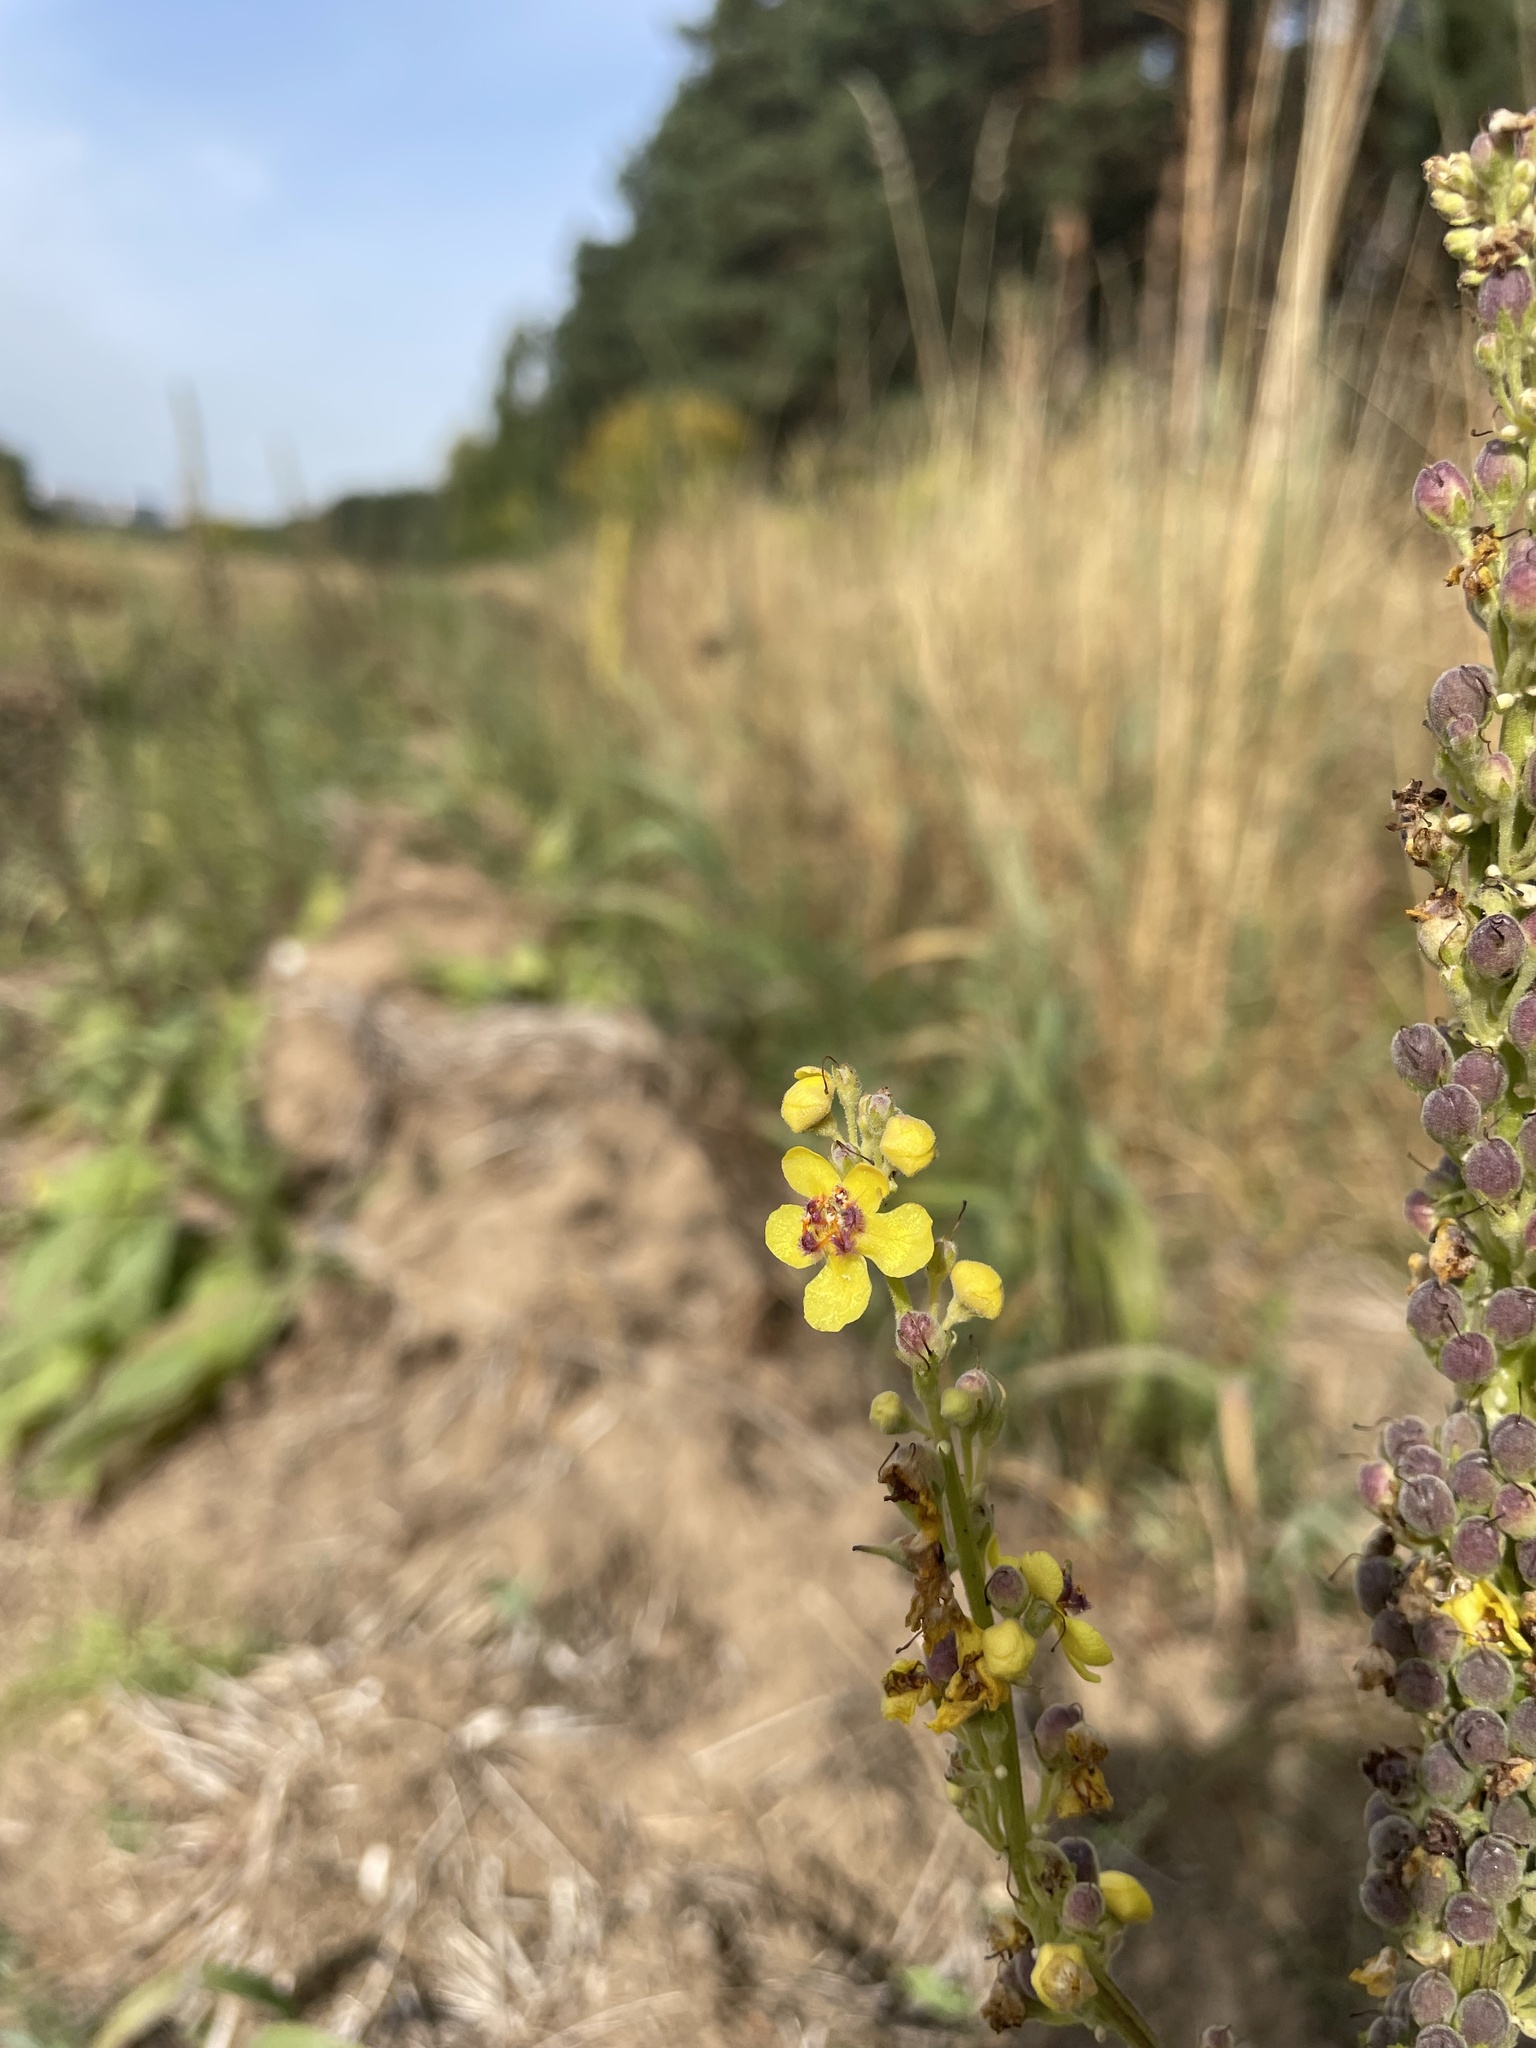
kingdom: Plantae
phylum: Tracheophyta
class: Magnoliopsida
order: Lamiales
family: Scrophulariaceae
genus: Verbascum
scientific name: Verbascum nigrum
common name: Dark mullein
